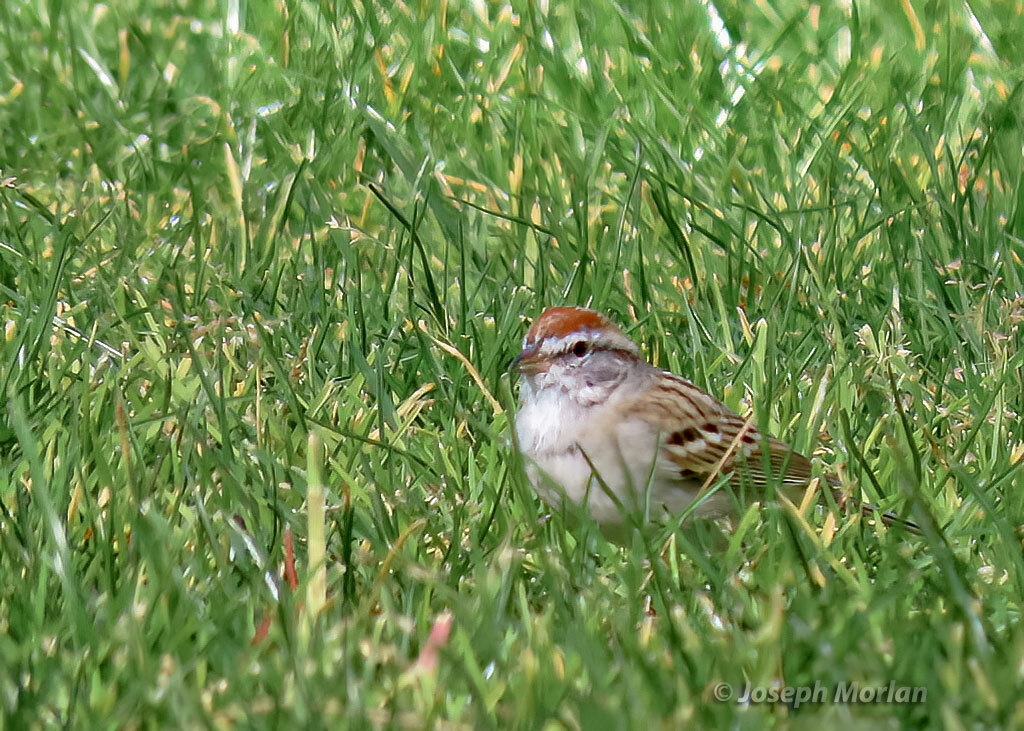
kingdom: Animalia
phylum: Chordata
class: Aves
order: Passeriformes
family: Passerellidae
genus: Spizella
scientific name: Spizella passerina
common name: Chipping sparrow
